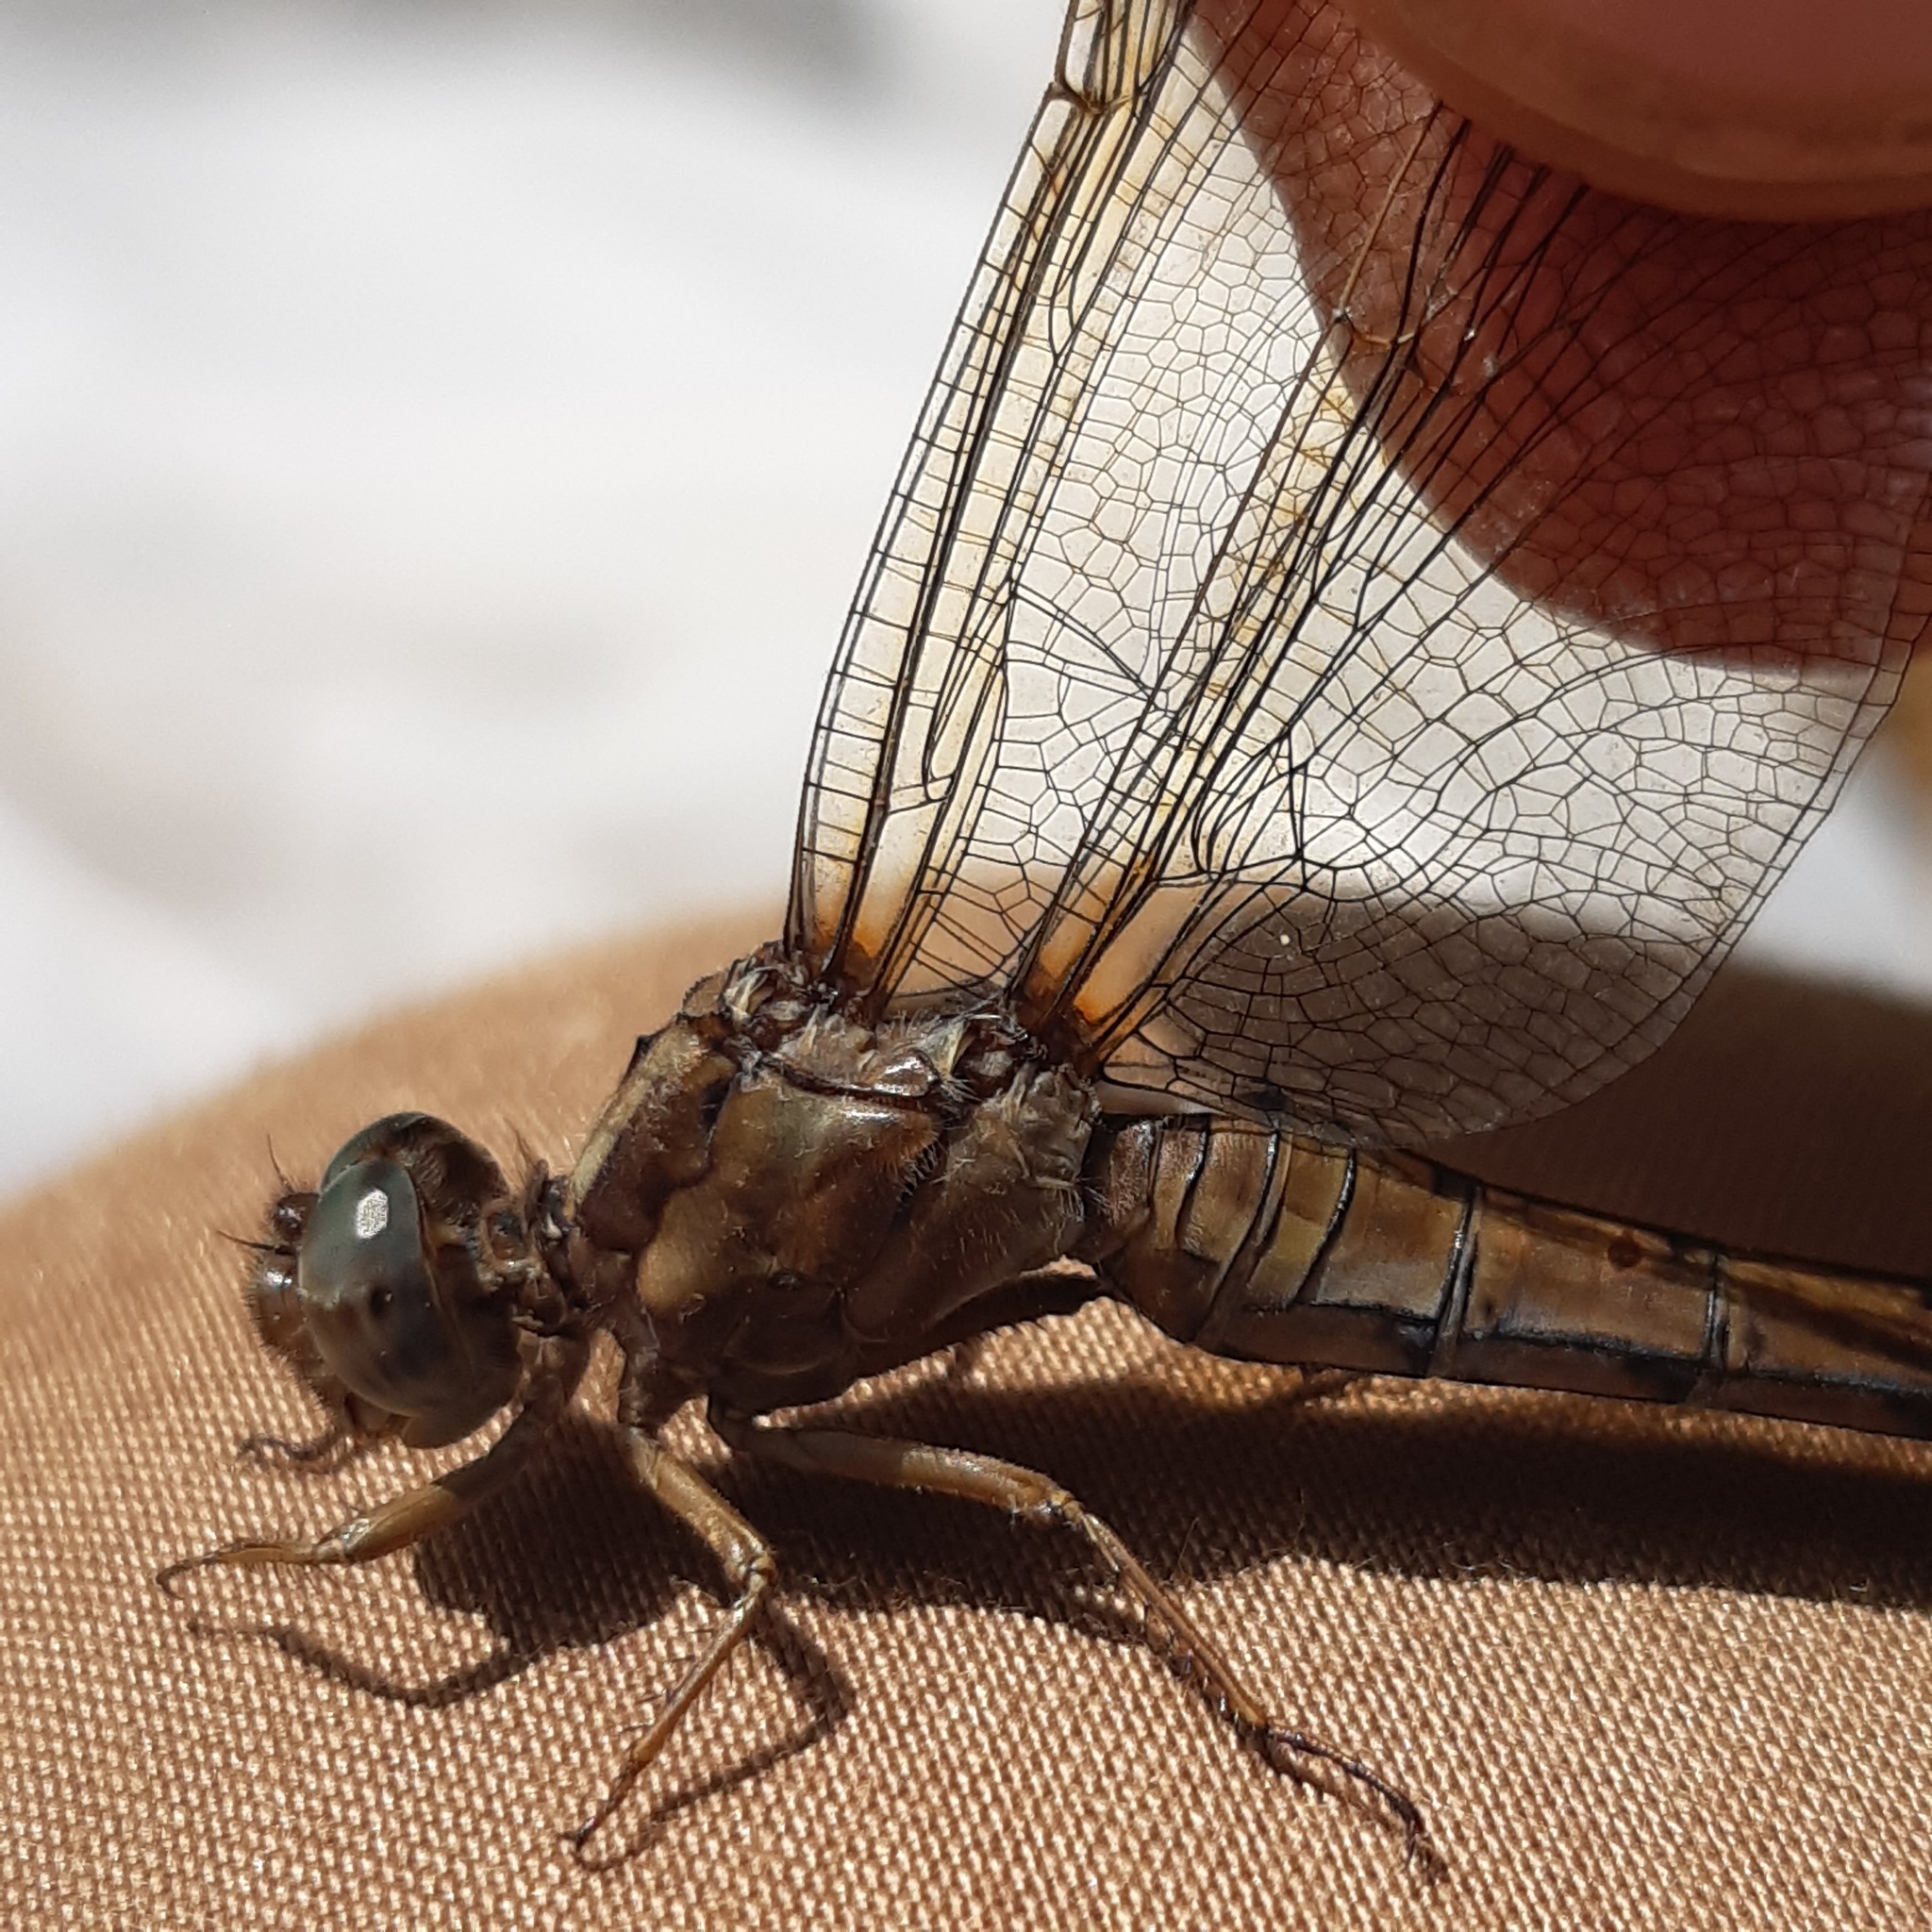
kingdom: Animalia
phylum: Arthropoda
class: Insecta
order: Odonata
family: Libellulidae
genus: Orthetrum
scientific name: Orthetrum coerulescens
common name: Keeled skimmer
